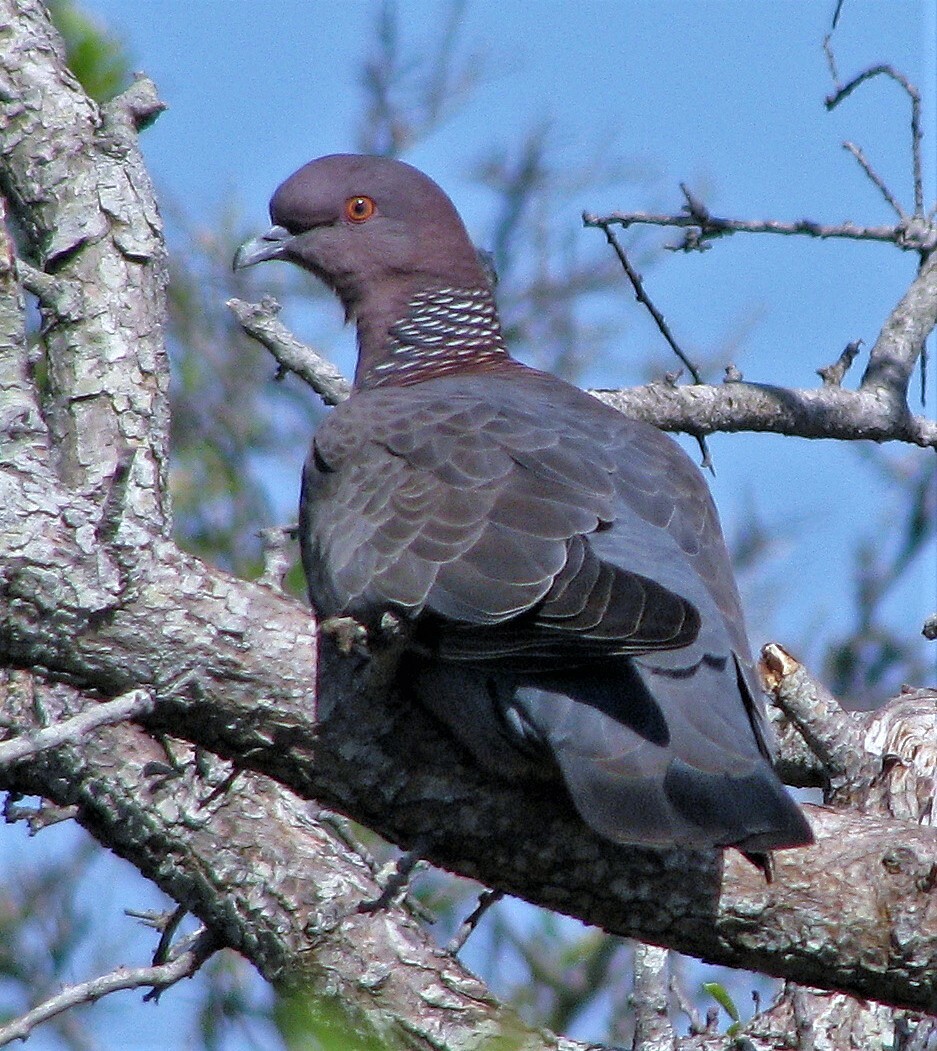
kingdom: Animalia
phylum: Chordata
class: Aves
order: Columbiformes
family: Columbidae
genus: Patagioenas
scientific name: Patagioenas picazuro
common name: Picazuro pigeon
